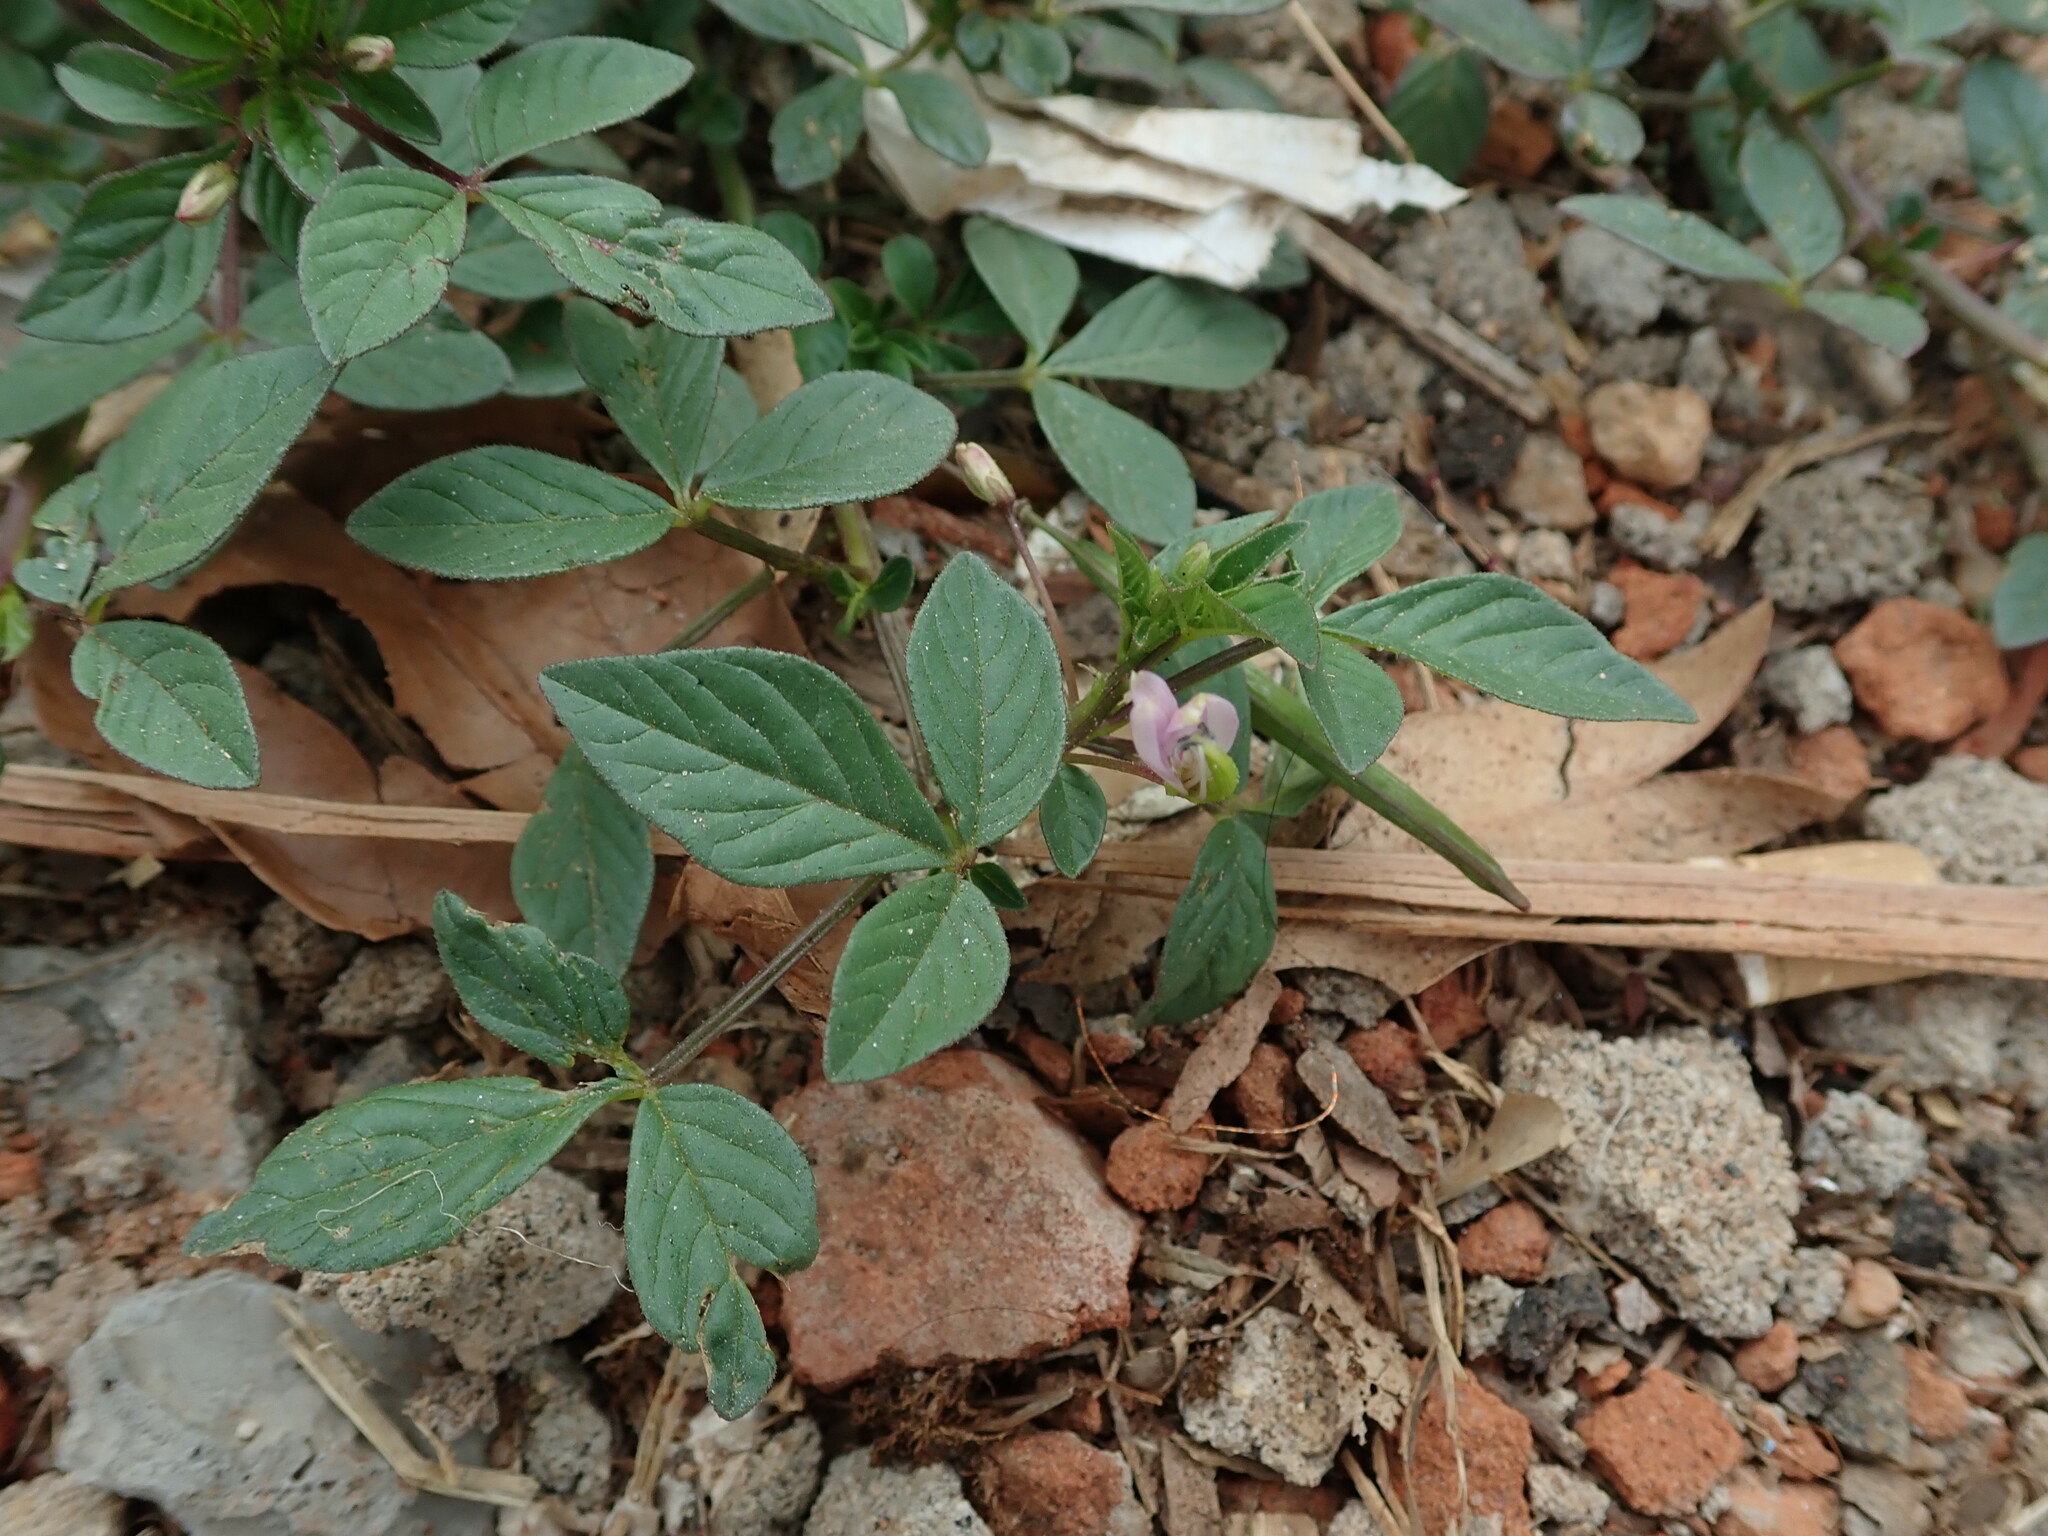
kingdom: Plantae
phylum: Tracheophyta
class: Magnoliopsida
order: Brassicales
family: Cleomaceae
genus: Sieruela
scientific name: Sieruela rutidosperma
